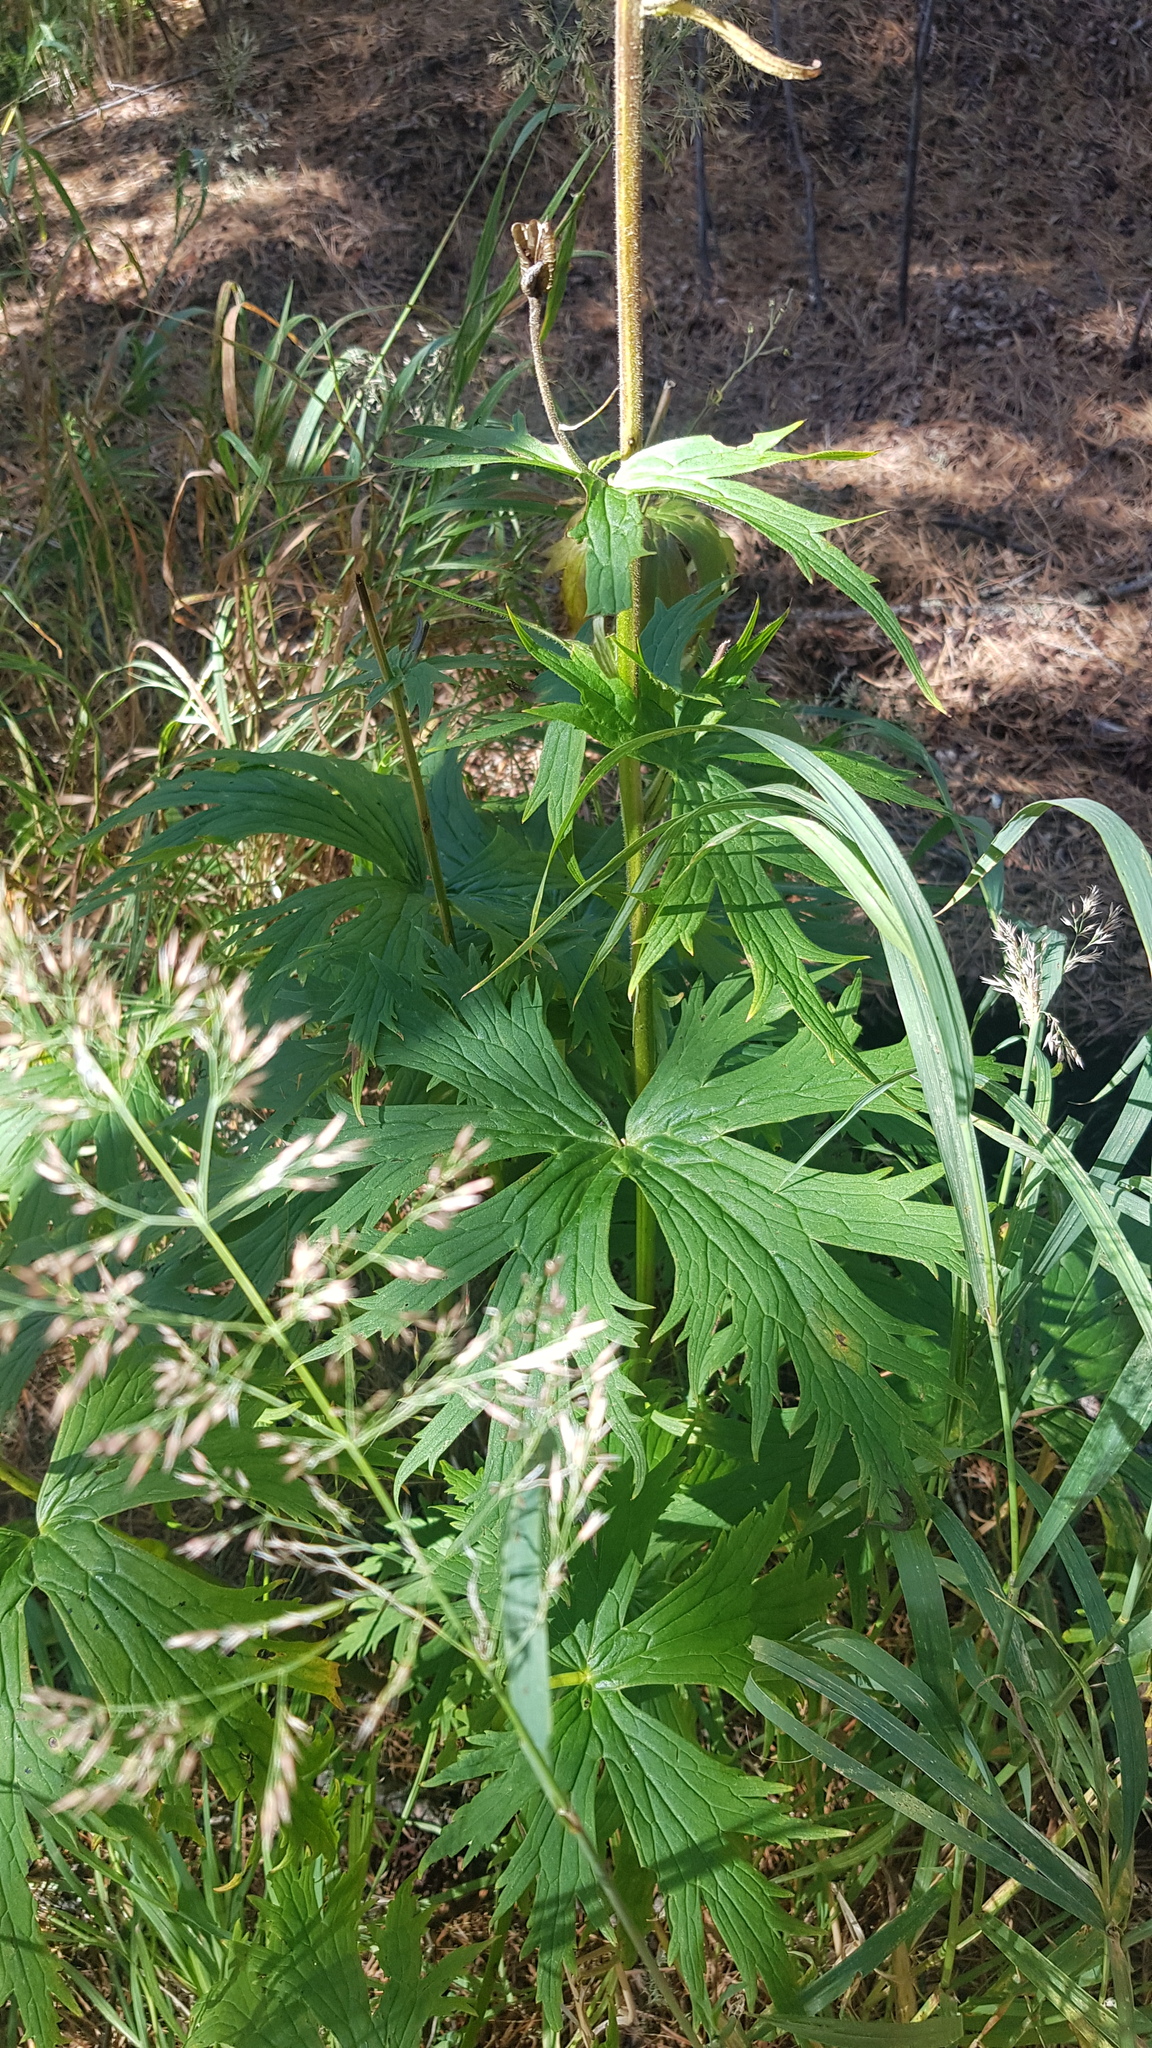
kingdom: Plantae
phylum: Tracheophyta
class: Magnoliopsida
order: Ranunculales
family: Ranunculaceae
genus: Aconitum
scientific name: Aconitum septentrionale
